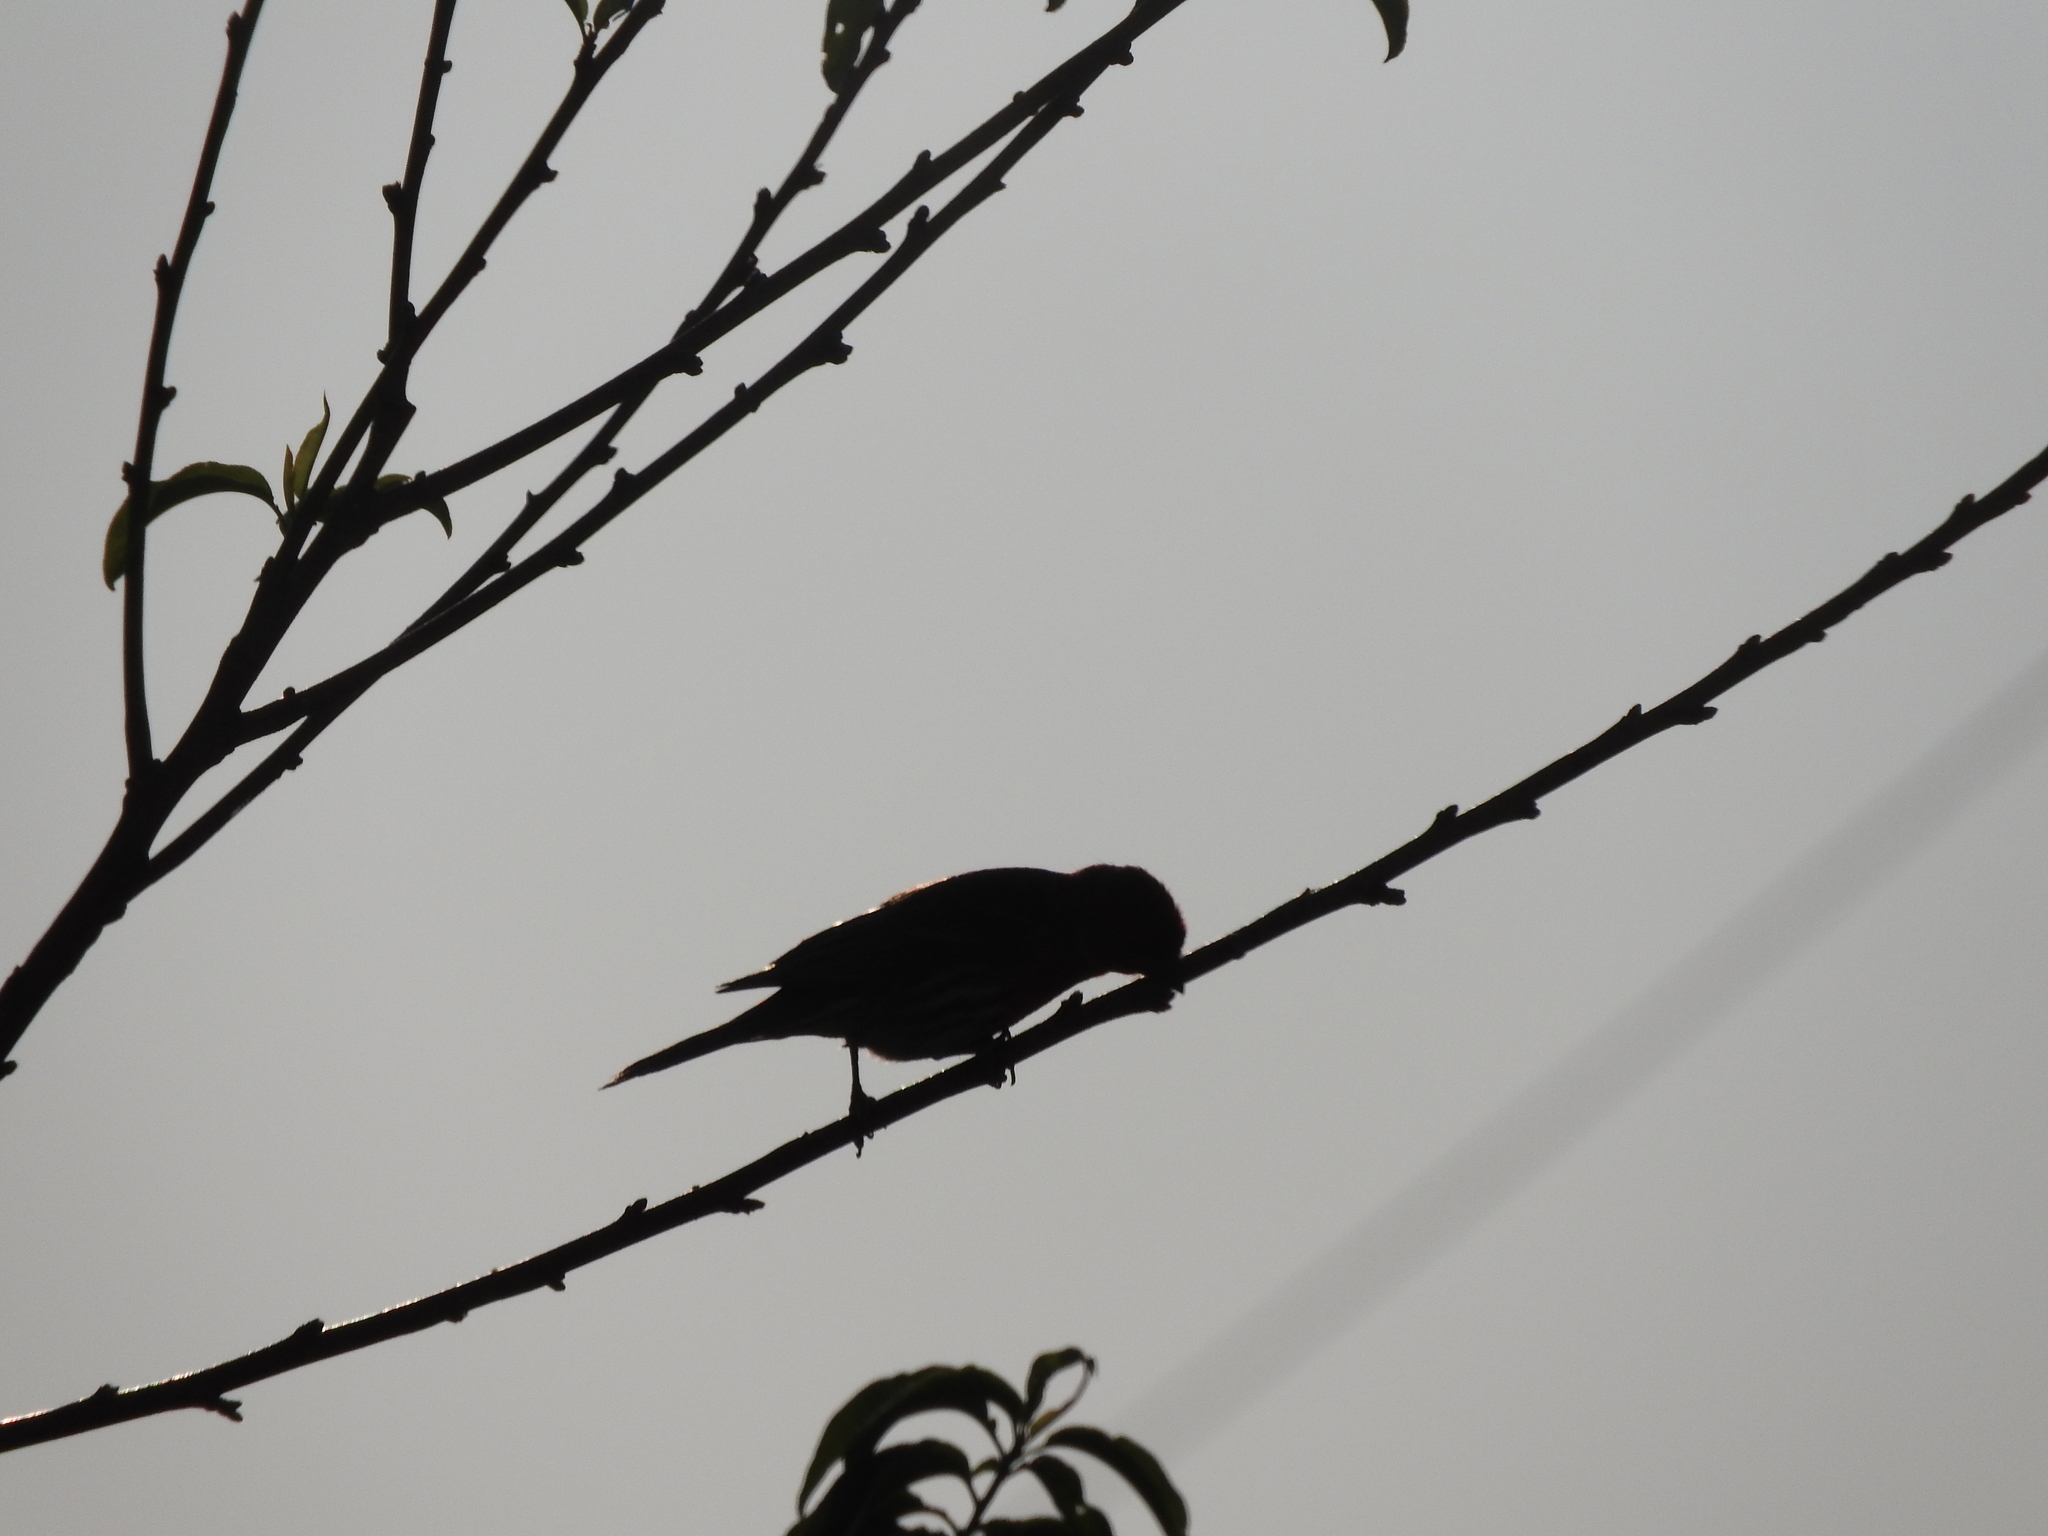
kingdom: Animalia
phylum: Chordata
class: Aves
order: Passeriformes
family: Fringillidae
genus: Haemorhous
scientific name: Haemorhous mexicanus
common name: House finch
